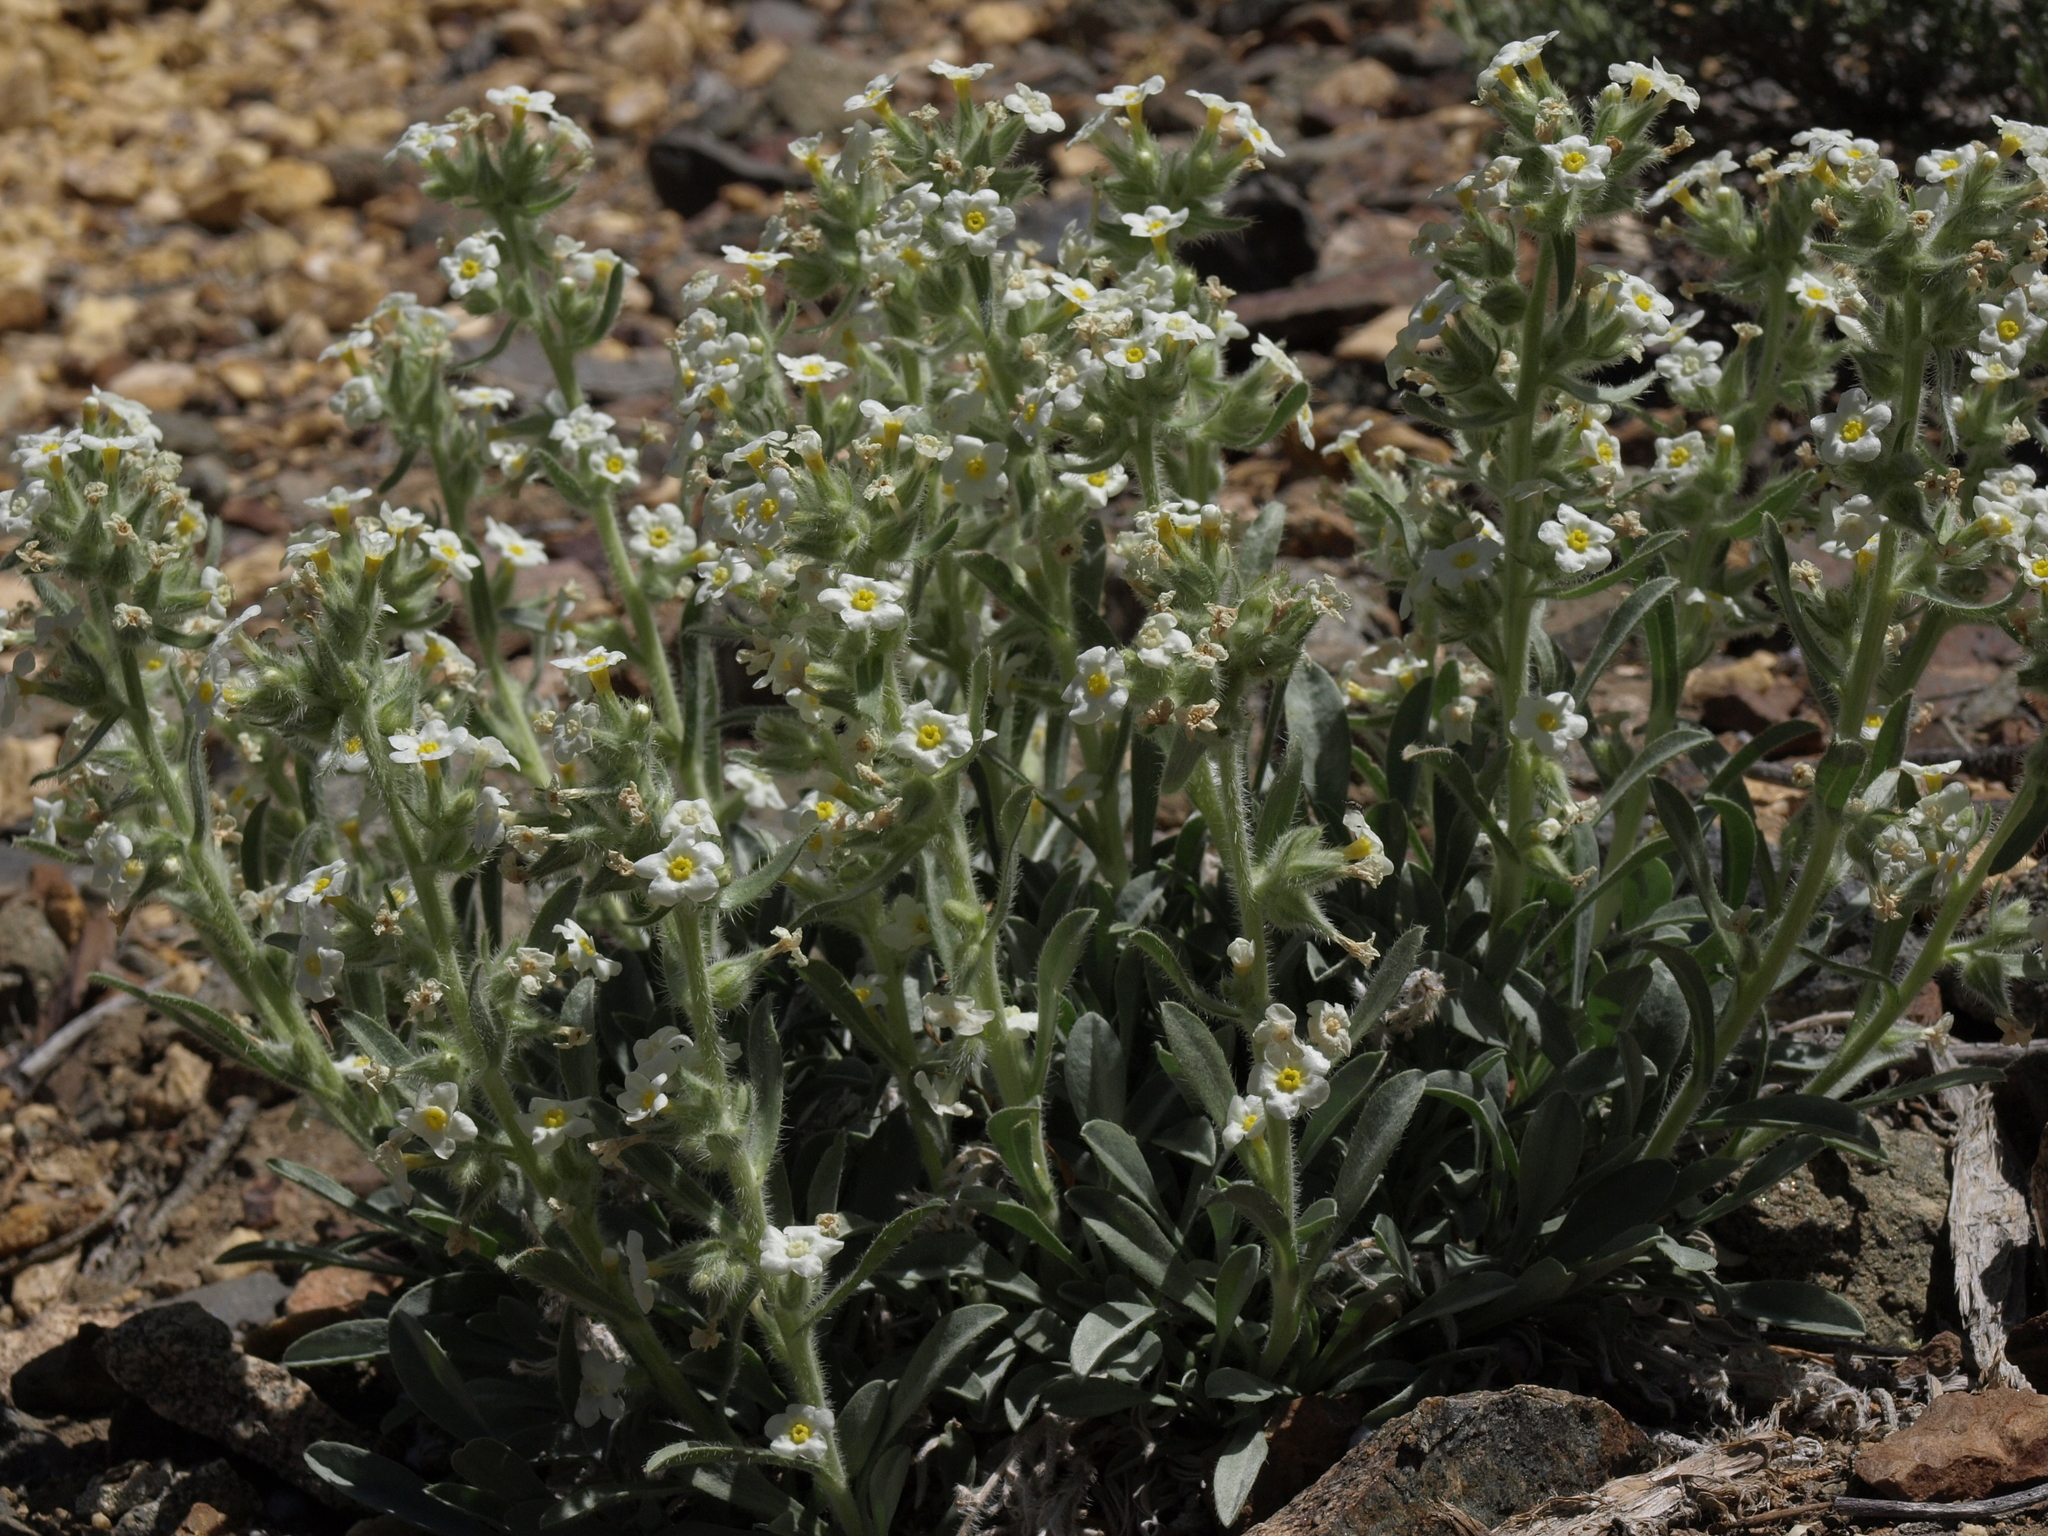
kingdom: Plantae
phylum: Tracheophyta
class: Magnoliopsida
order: Boraginales
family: Boraginaceae
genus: Oreocarya
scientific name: Oreocarya flavoculata
